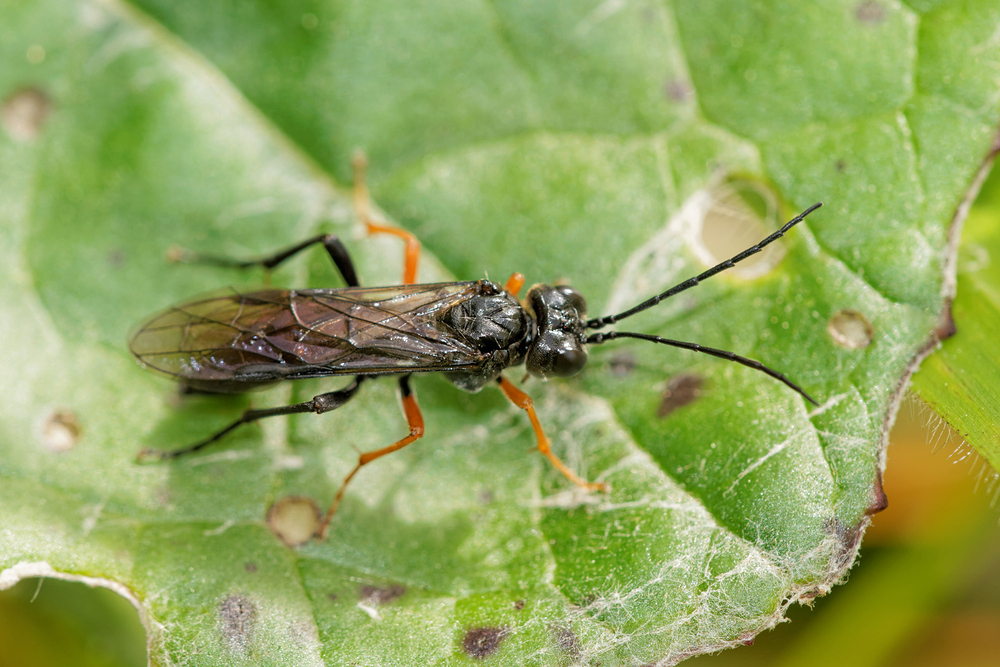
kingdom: Animalia
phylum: Arthropoda
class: Insecta
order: Hymenoptera
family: Tenthredinidae
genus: Tenthredo
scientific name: Tenthredo mandibularis
